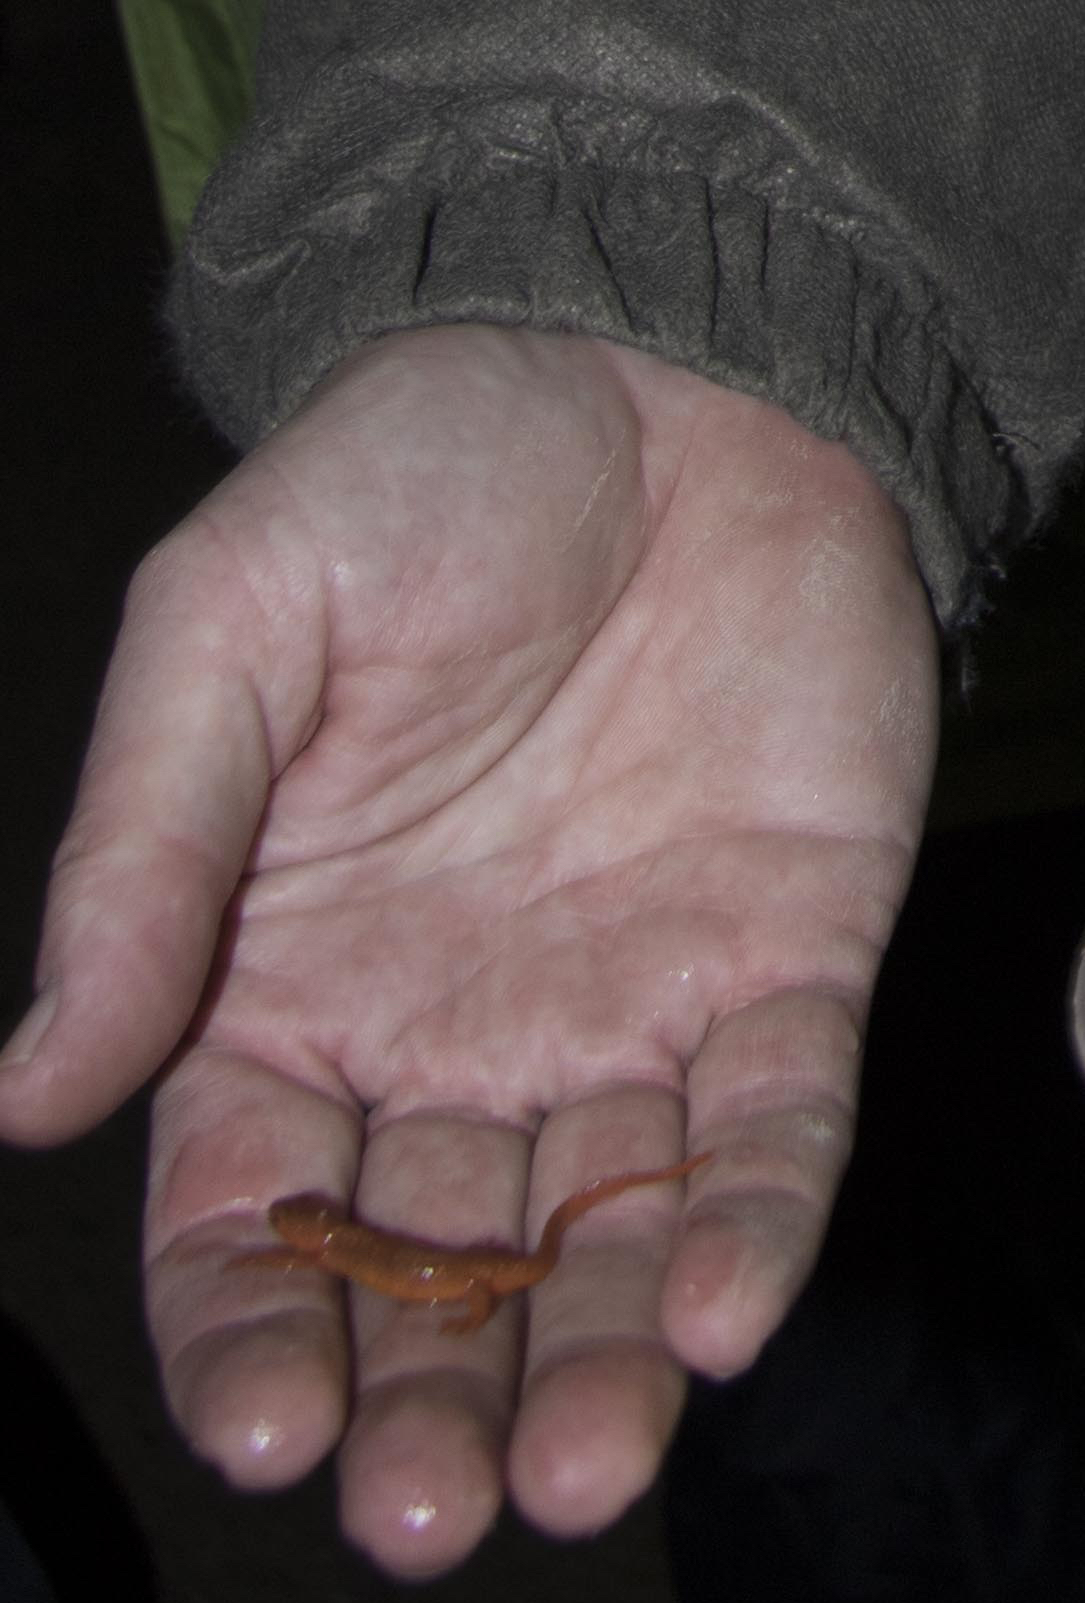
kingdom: Animalia
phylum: Chordata
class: Amphibia
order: Caudata
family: Salamandridae
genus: Notophthalmus
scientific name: Notophthalmus viridescens
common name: Eastern newt
